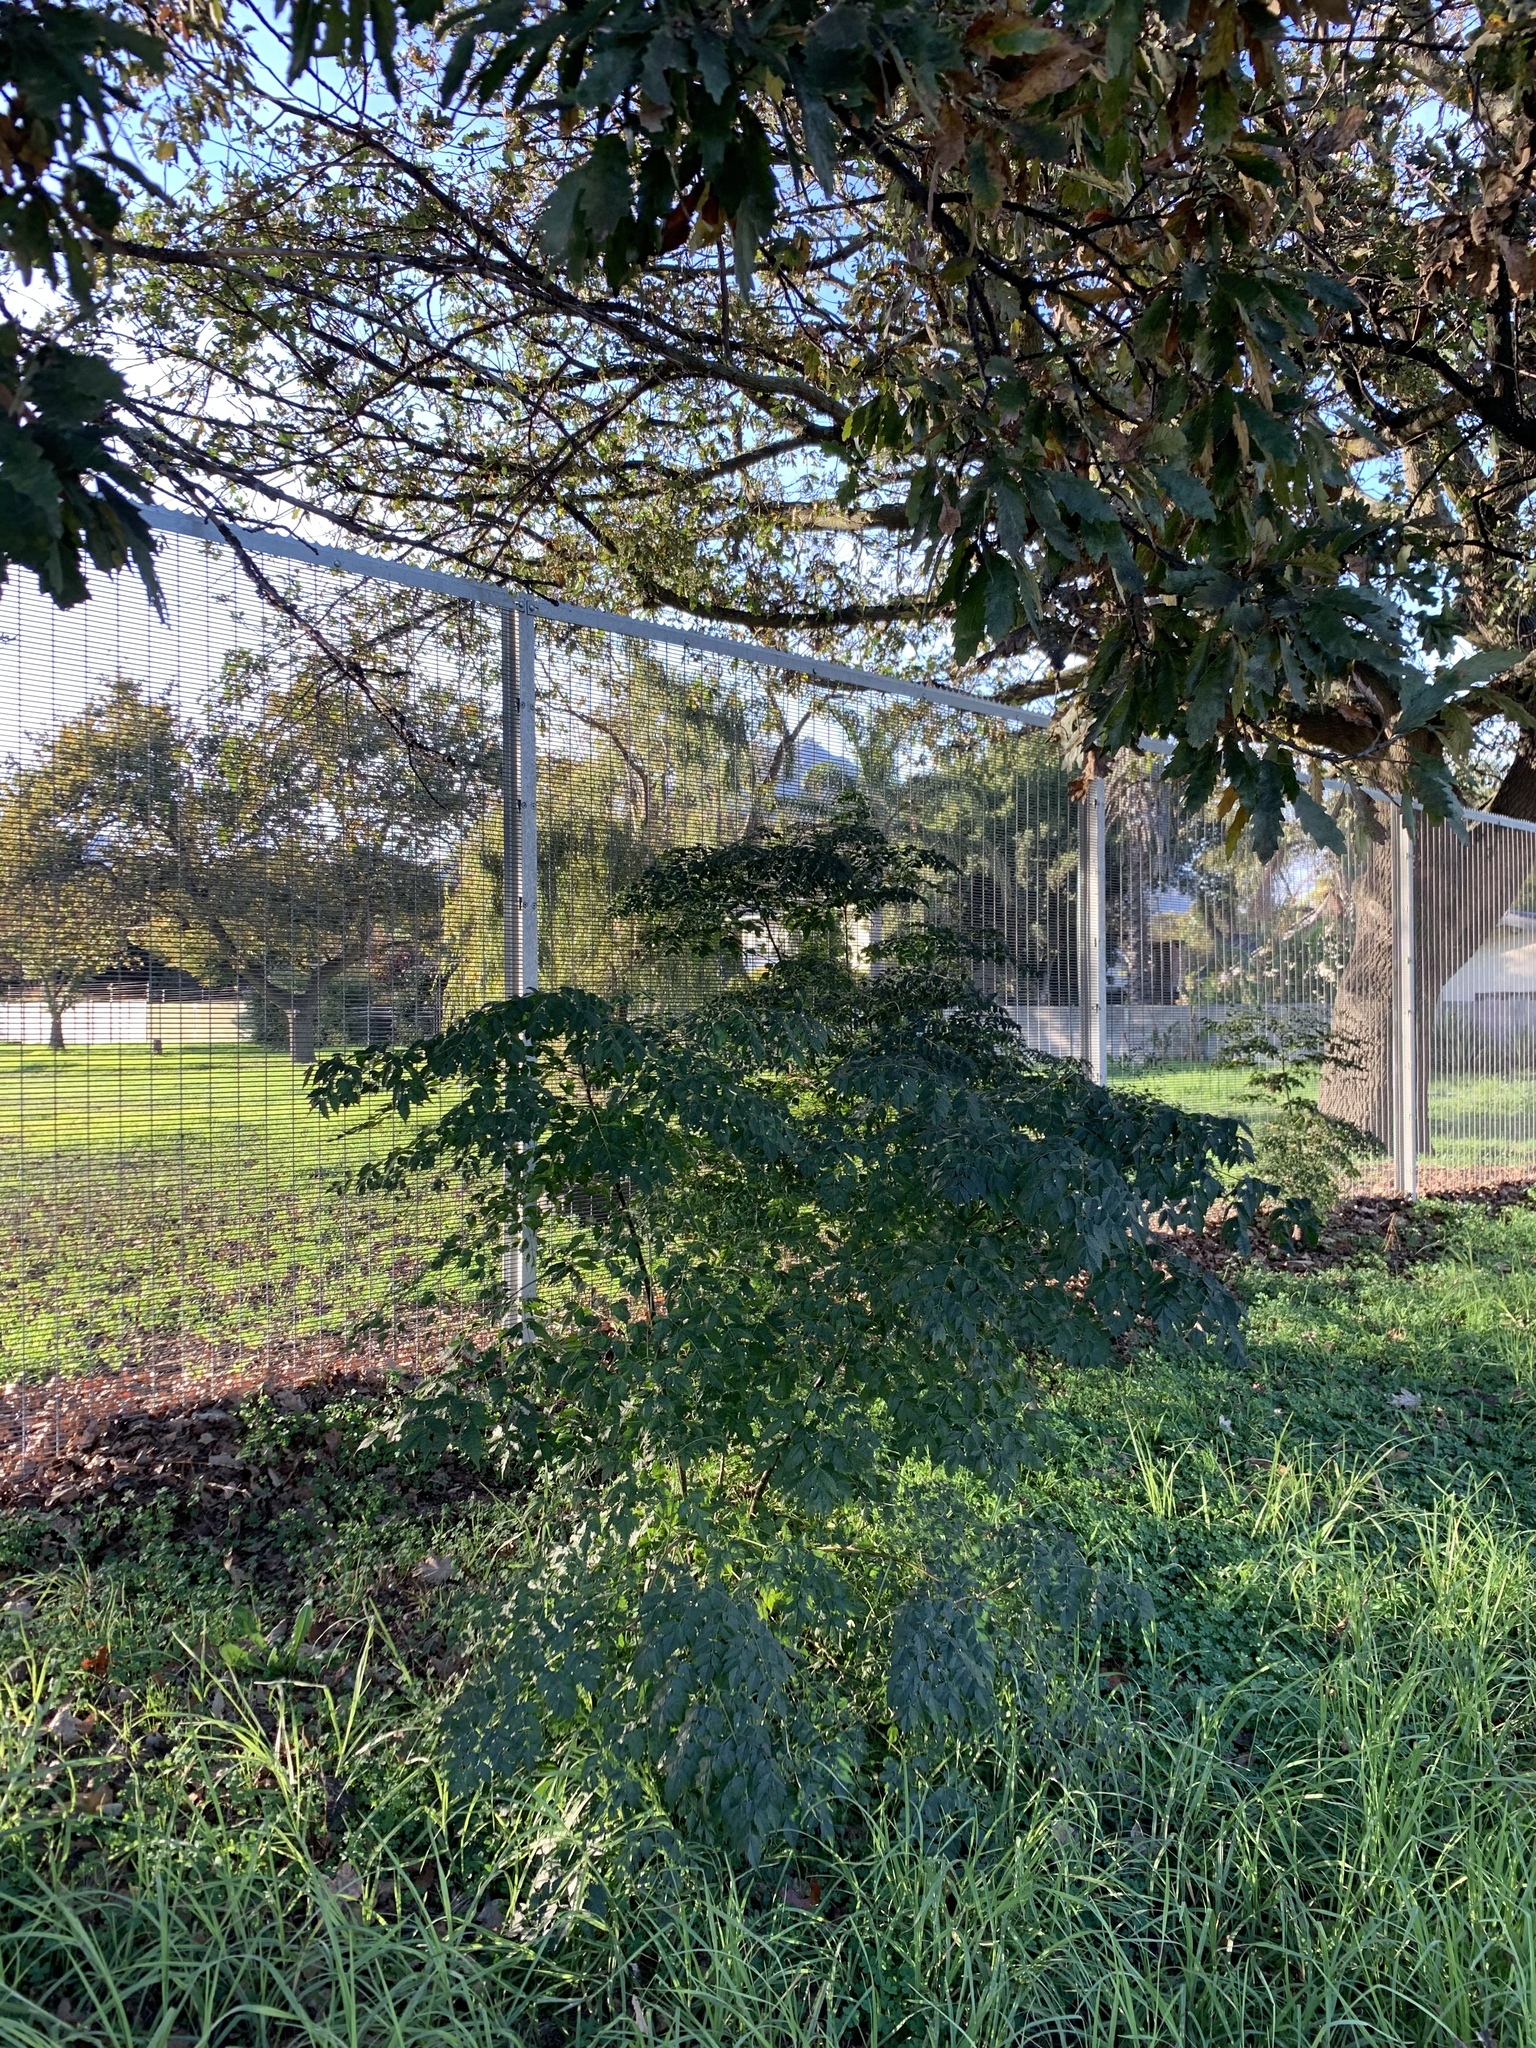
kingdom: Plantae
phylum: Tracheophyta
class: Magnoliopsida
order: Sapindales
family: Meliaceae
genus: Melia
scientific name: Melia azedarach
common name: Chinaberrytree
